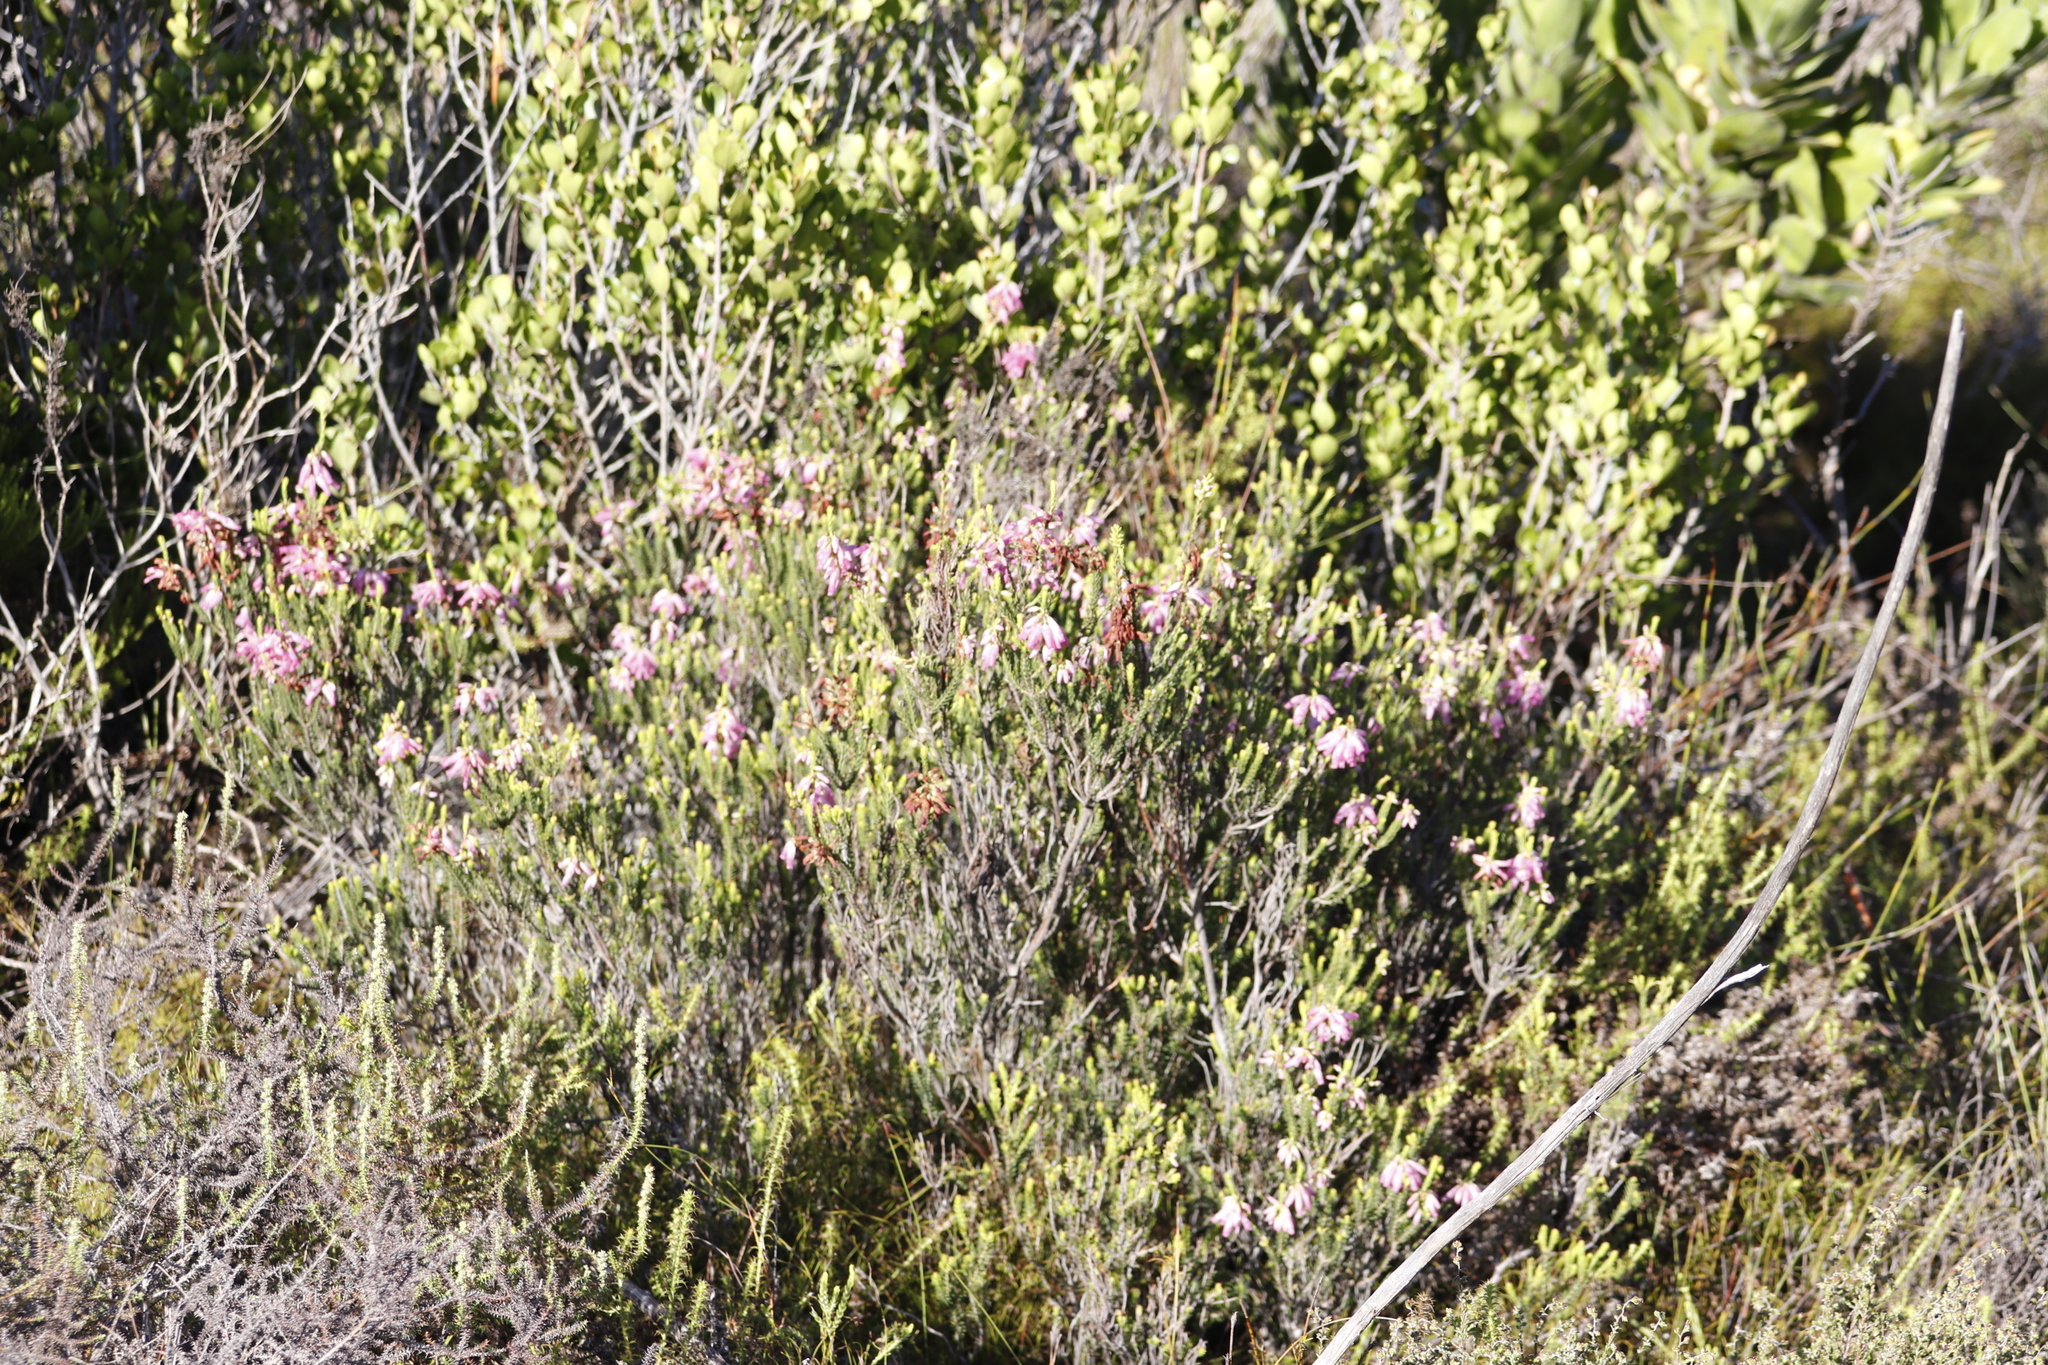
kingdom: Plantae
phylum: Tracheophyta
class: Magnoliopsida
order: Ericales
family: Ericaceae
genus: Erica
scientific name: Erica mammosa
